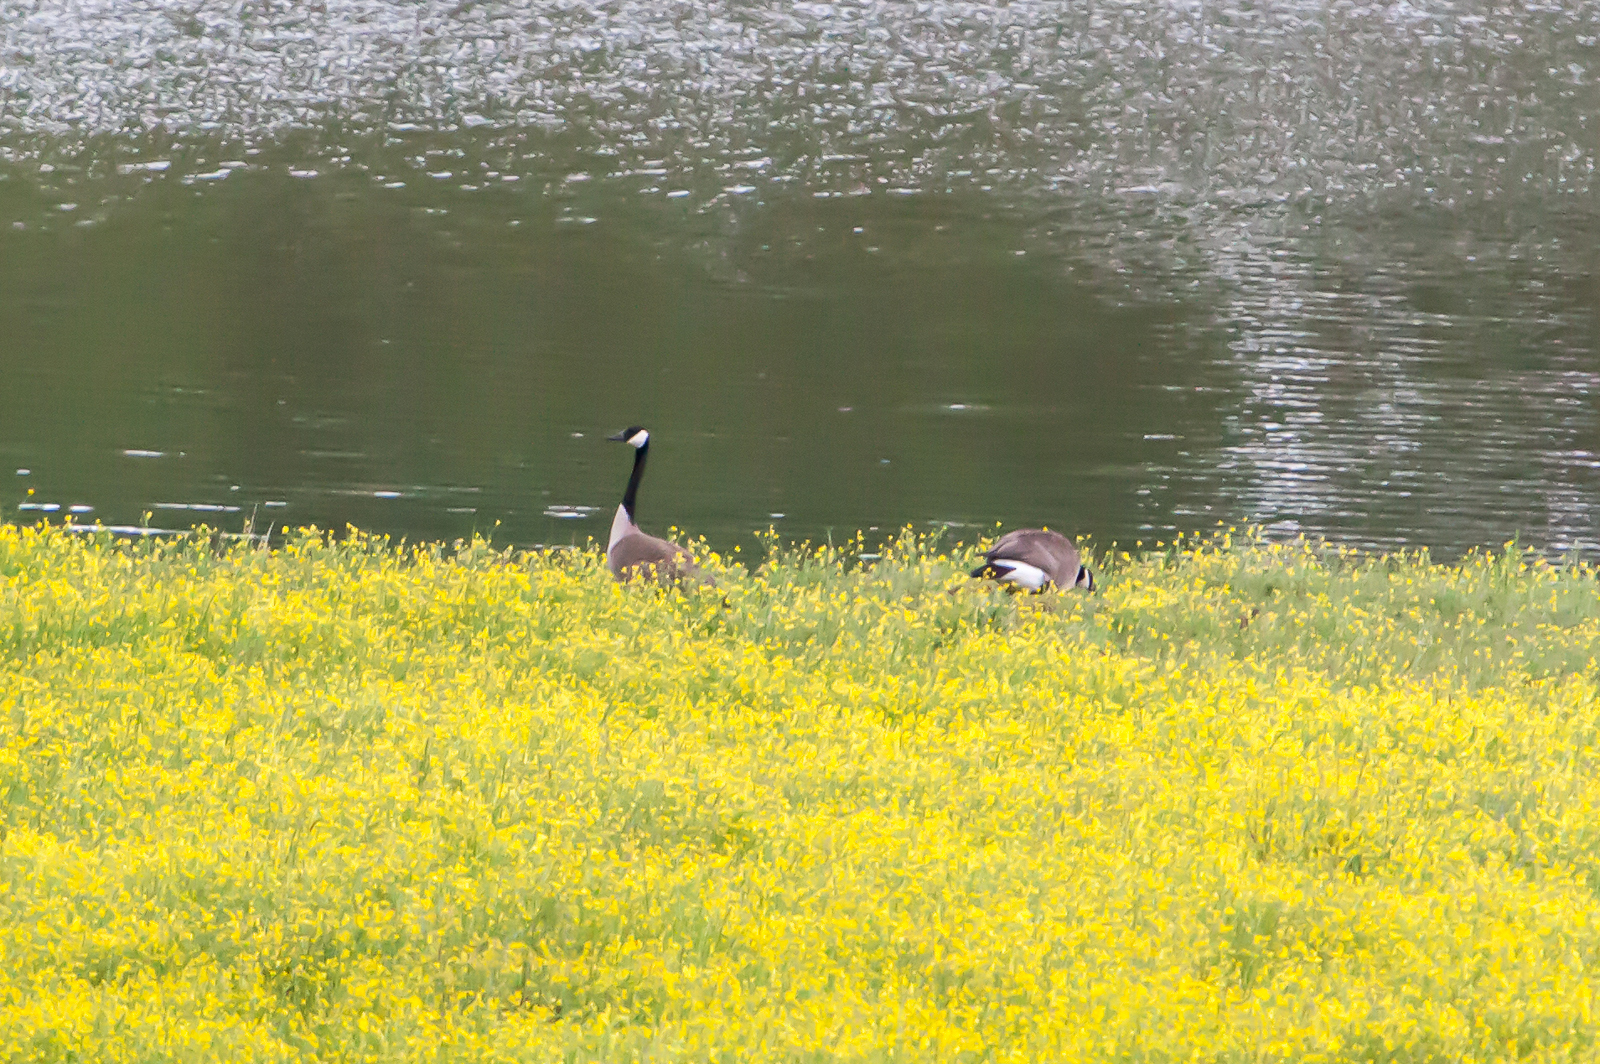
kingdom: Animalia
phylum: Chordata
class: Aves
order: Anseriformes
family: Anatidae
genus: Branta
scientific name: Branta canadensis
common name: Canada goose
